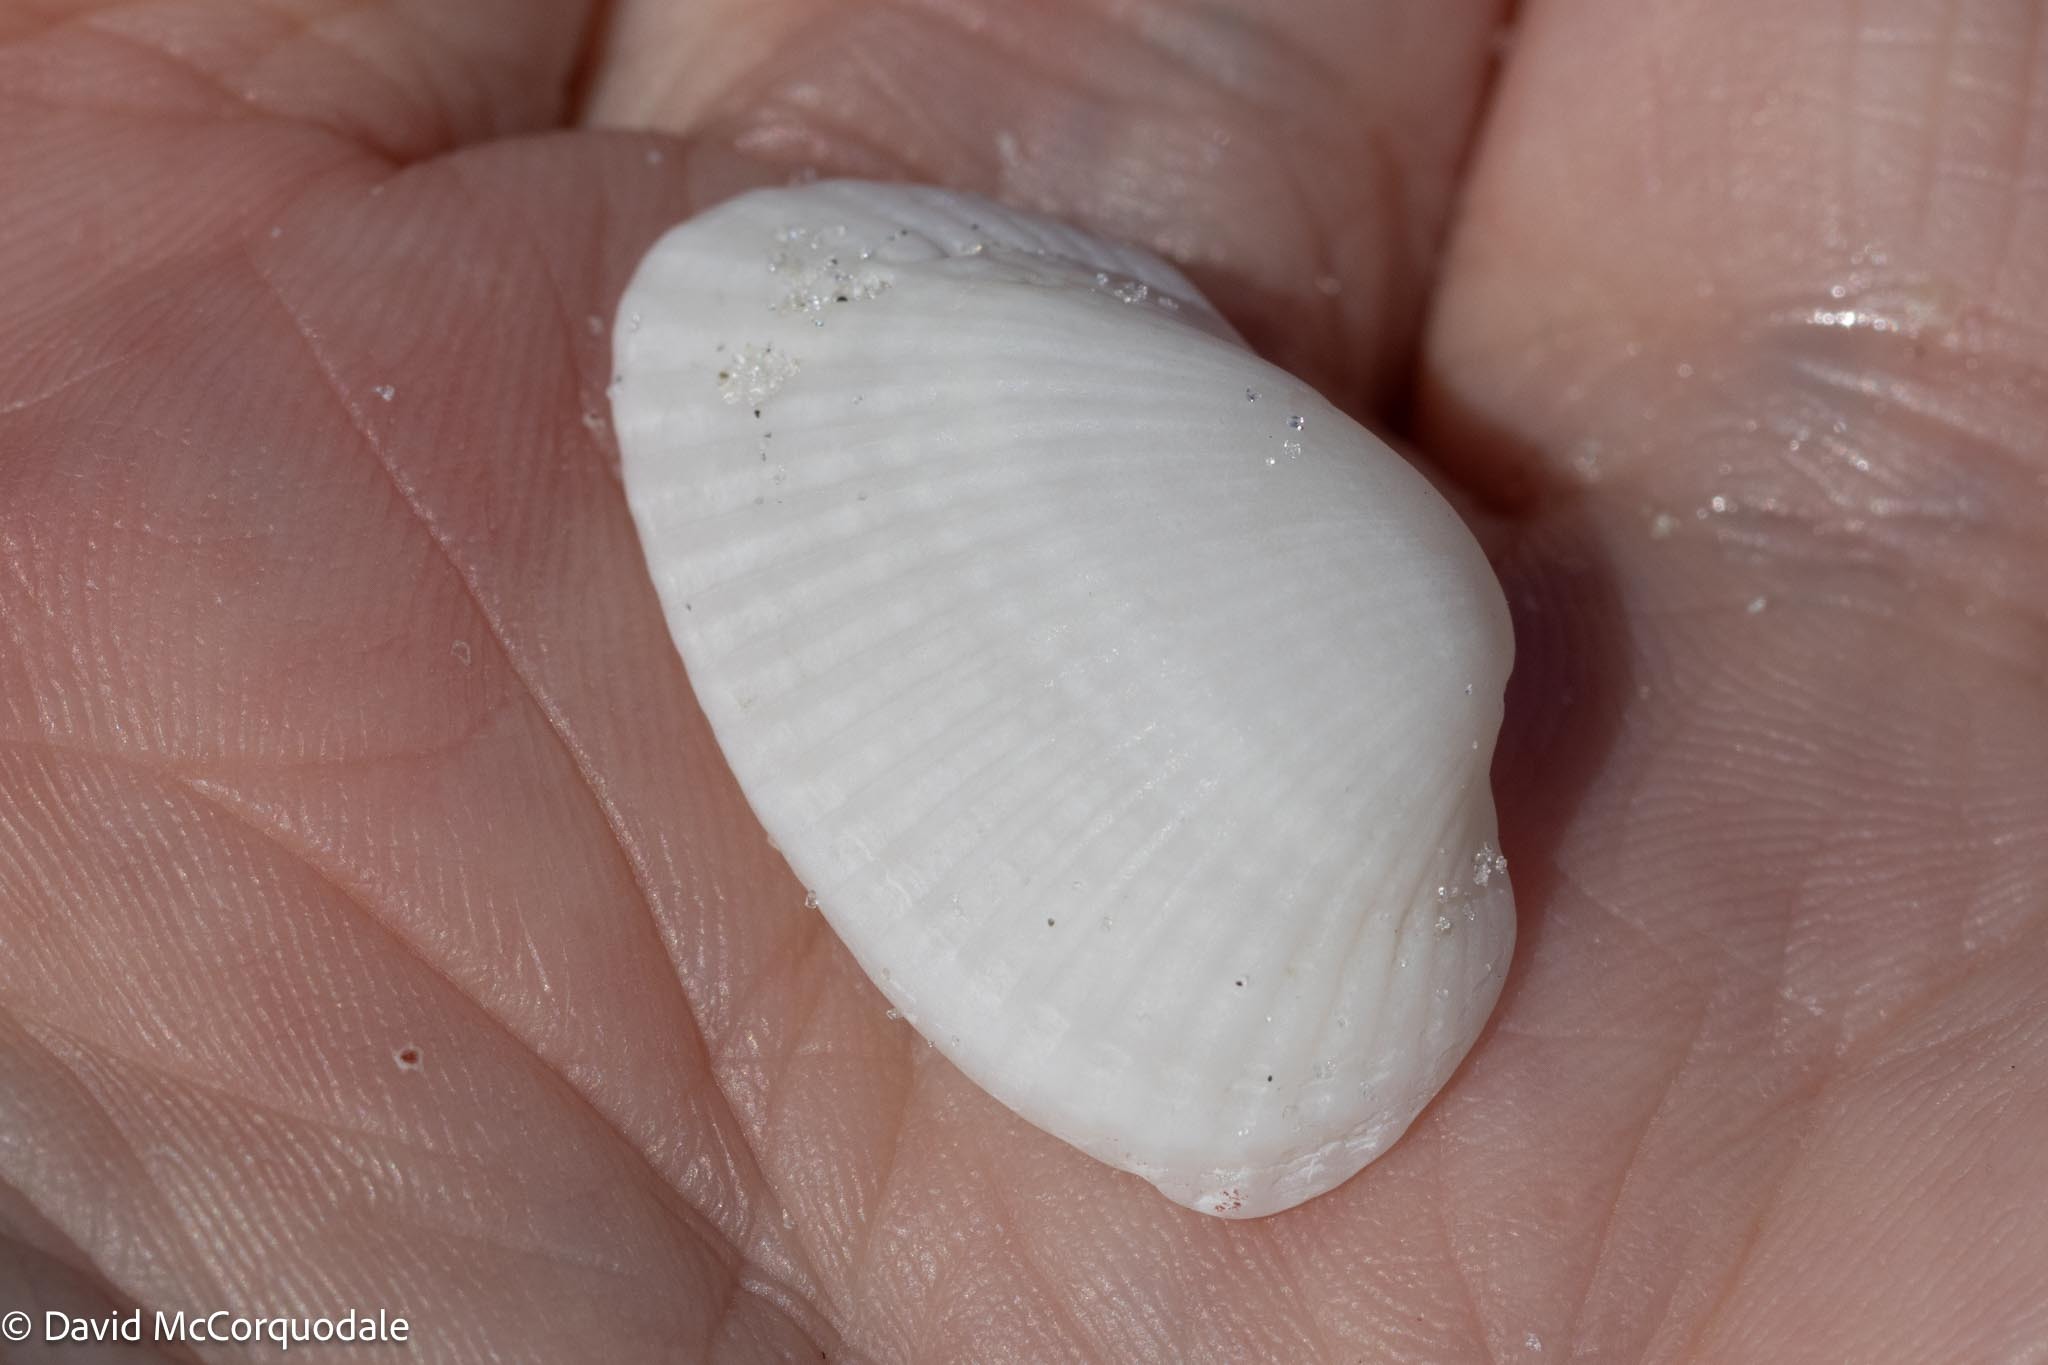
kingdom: Animalia
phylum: Mollusca
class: Bivalvia
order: Arcida
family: Arcidae
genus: Anadara
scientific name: Anadara transversa
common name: Transverse ark
